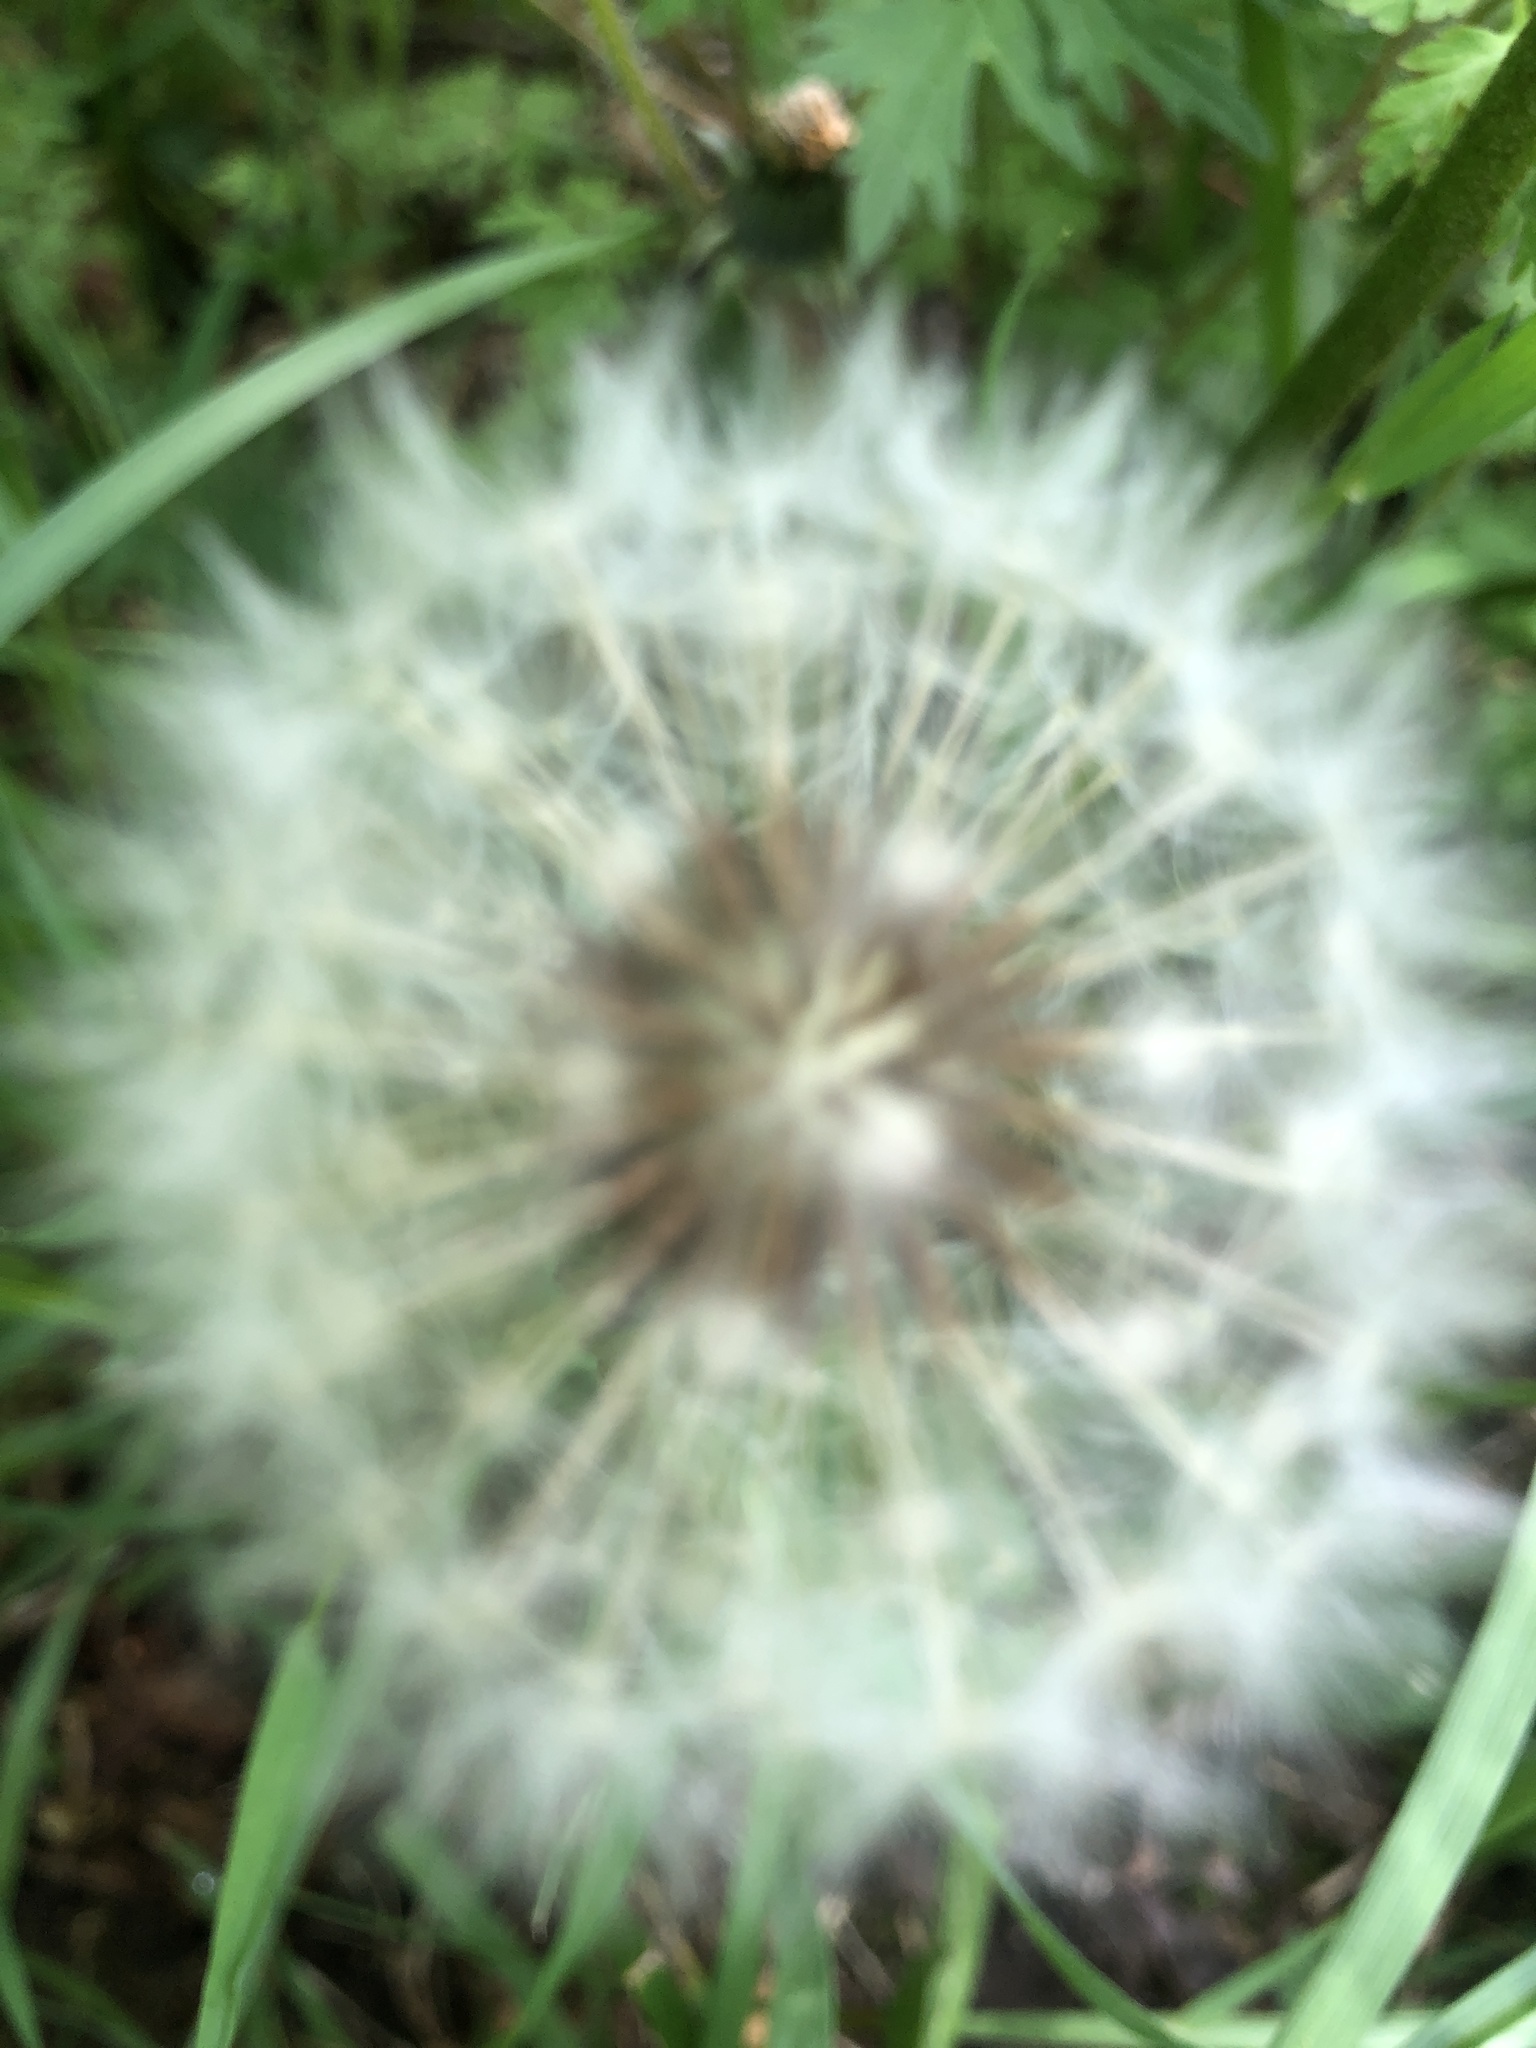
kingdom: Plantae
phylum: Tracheophyta
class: Magnoliopsida
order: Asterales
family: Asteraceae
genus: Taraxacum
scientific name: Taraxacum officinale
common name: Common dandelion
